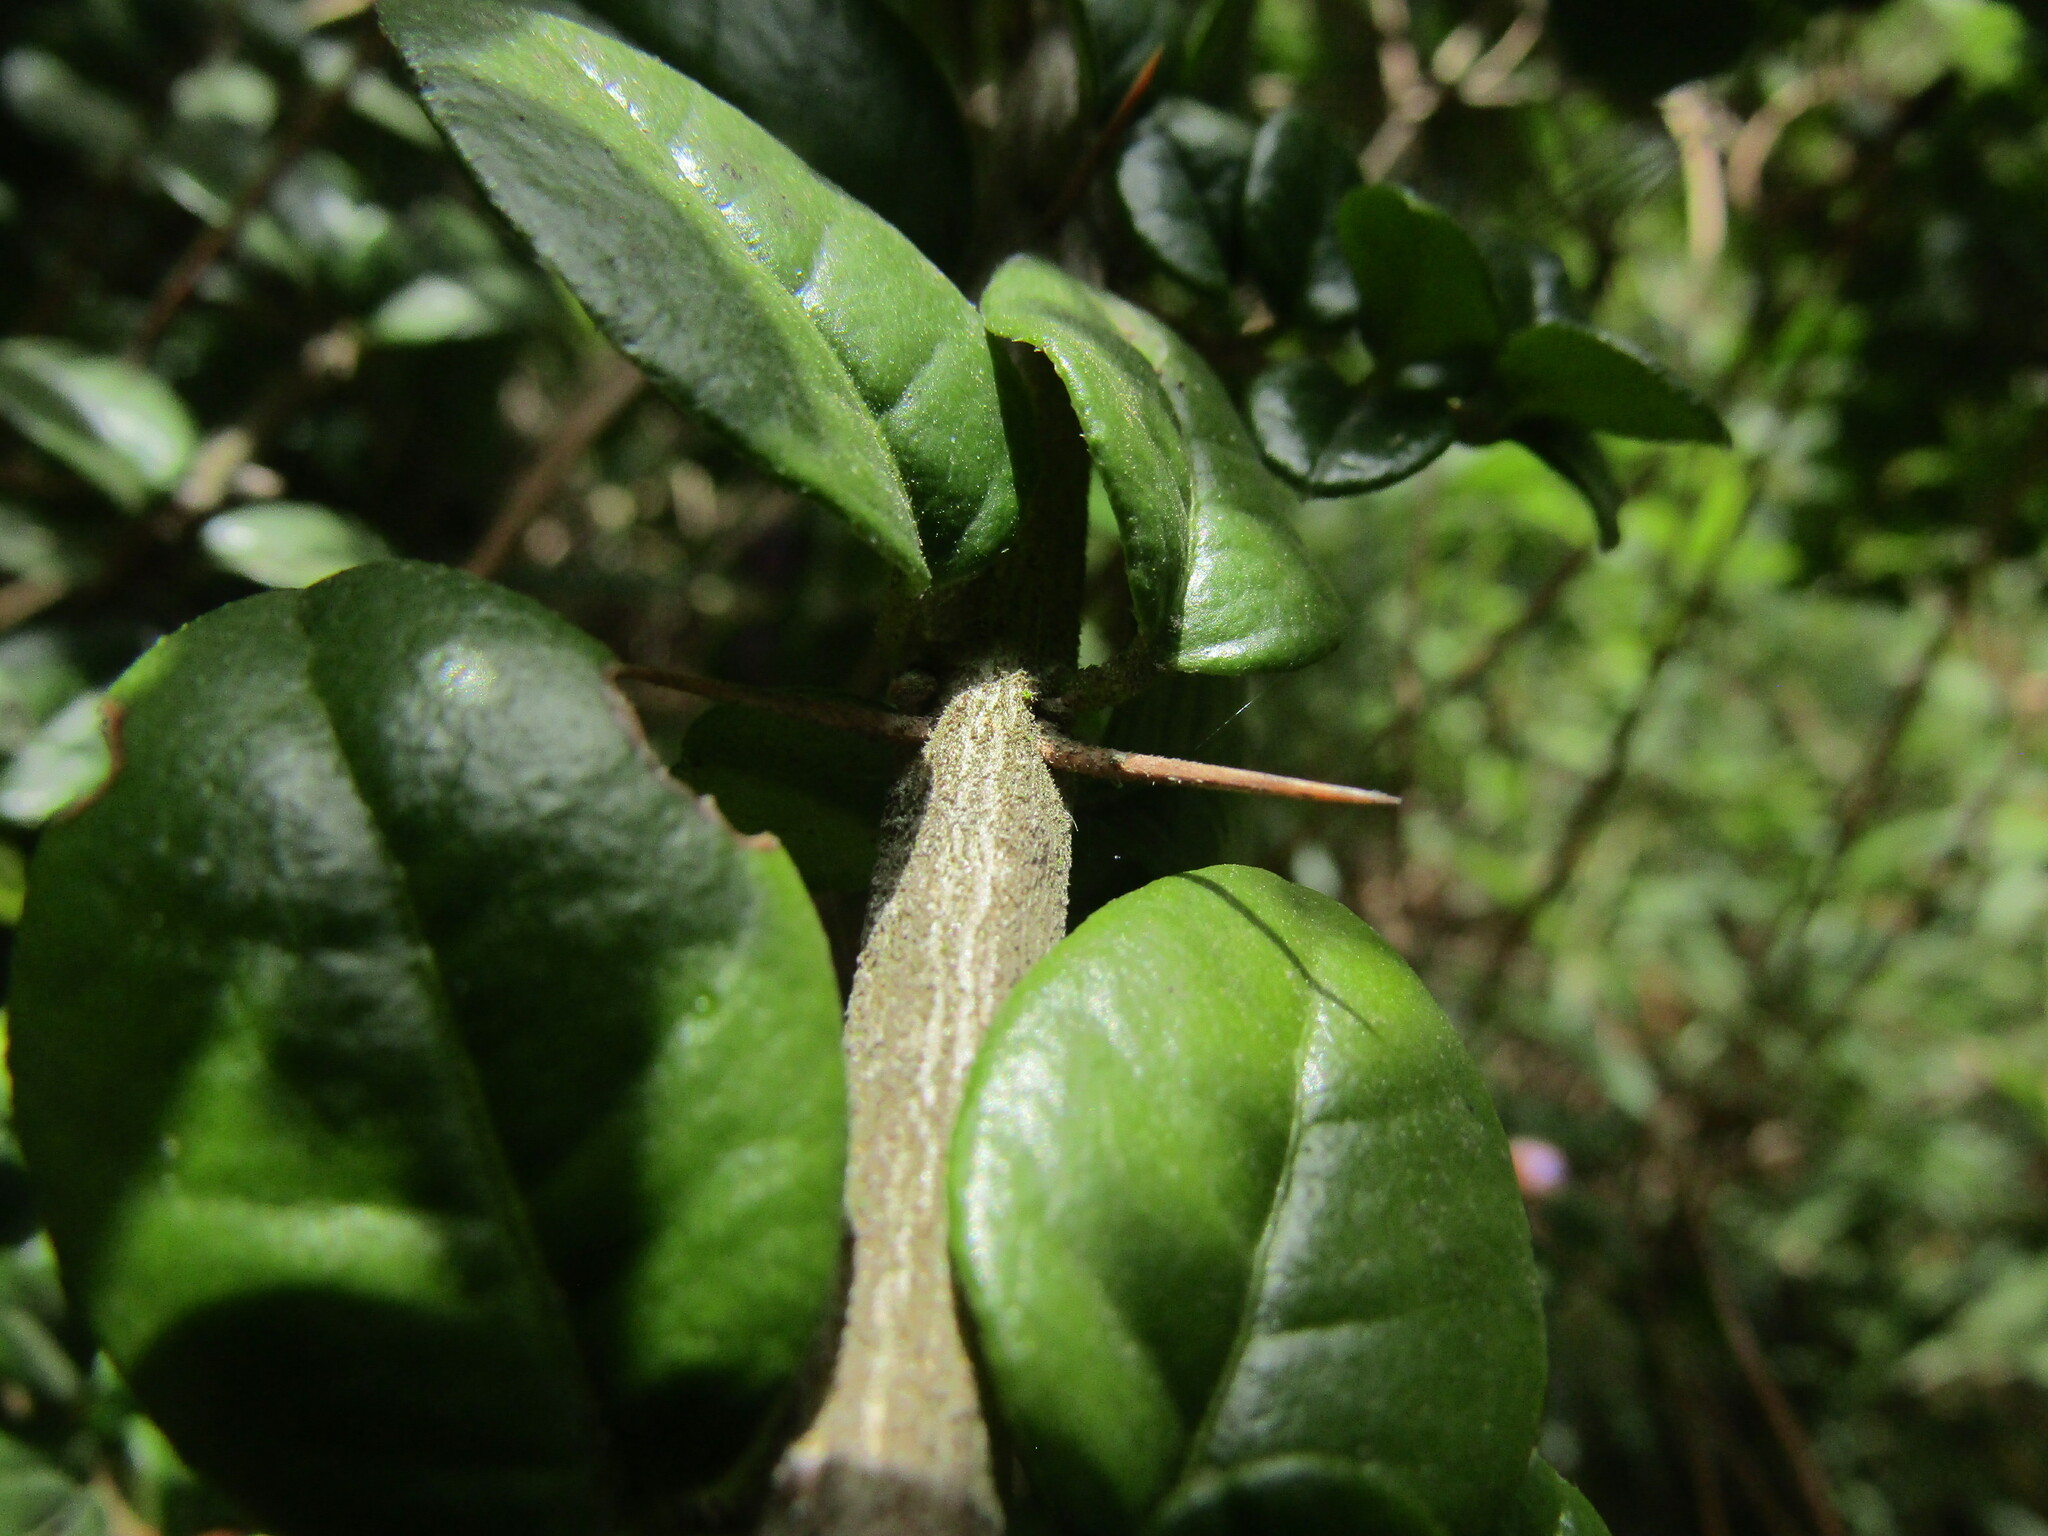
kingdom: Plantae
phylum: Tracheophyta
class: Magnoliopsida
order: Lamiales
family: Verbenaceae
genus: Rhaphithamnus
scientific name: Rhaphithamnus spinosus
